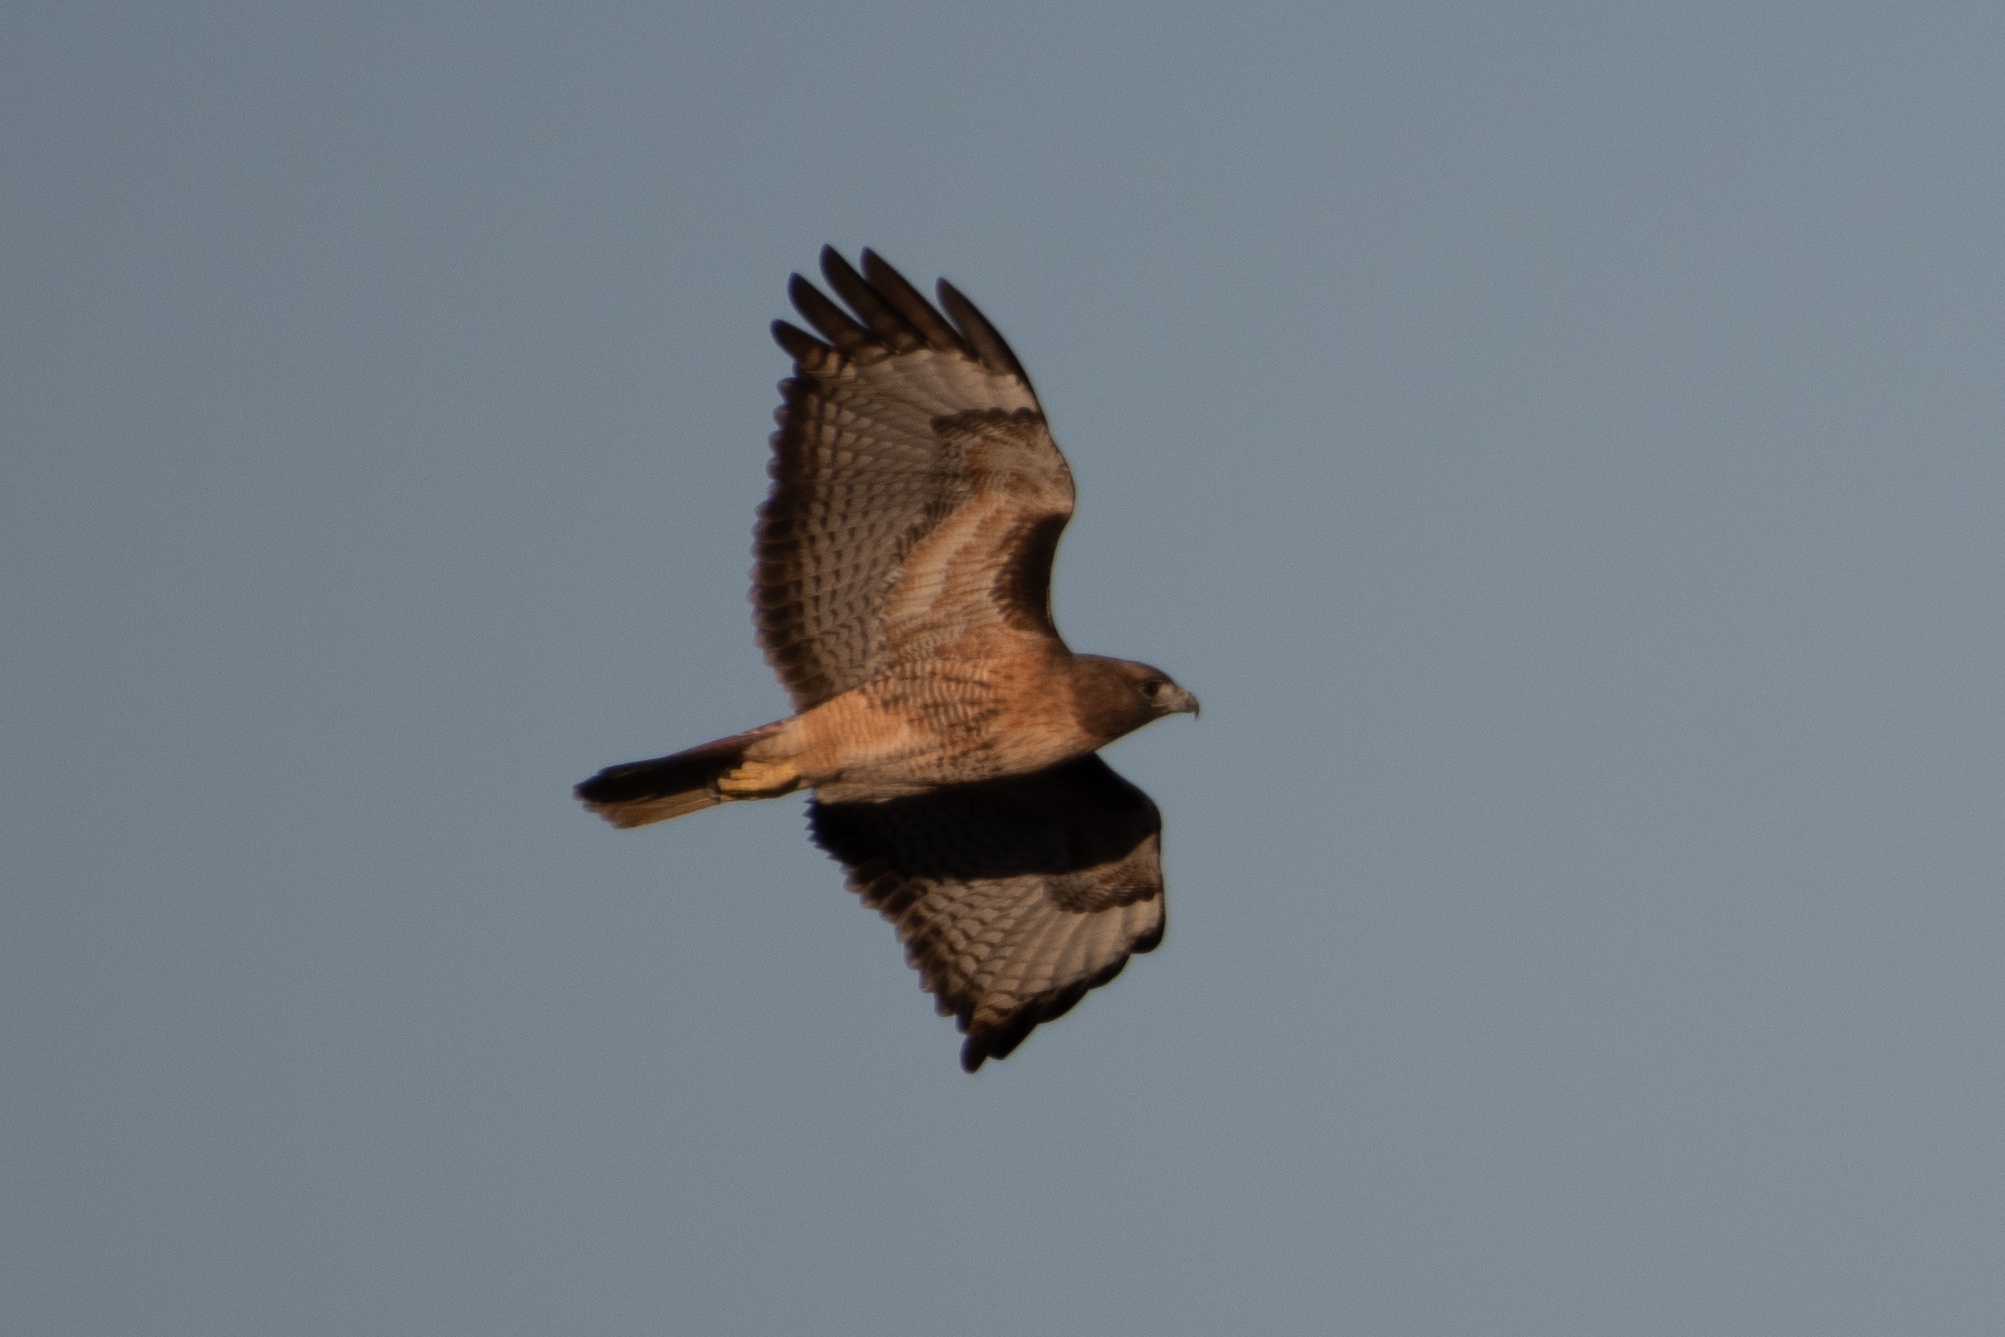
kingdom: Animalia
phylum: Chordata
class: Aves
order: Accipitriformes
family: Accipitridae
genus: Buteo
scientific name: Buteo jamaicensis
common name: Red-tailed hawk
